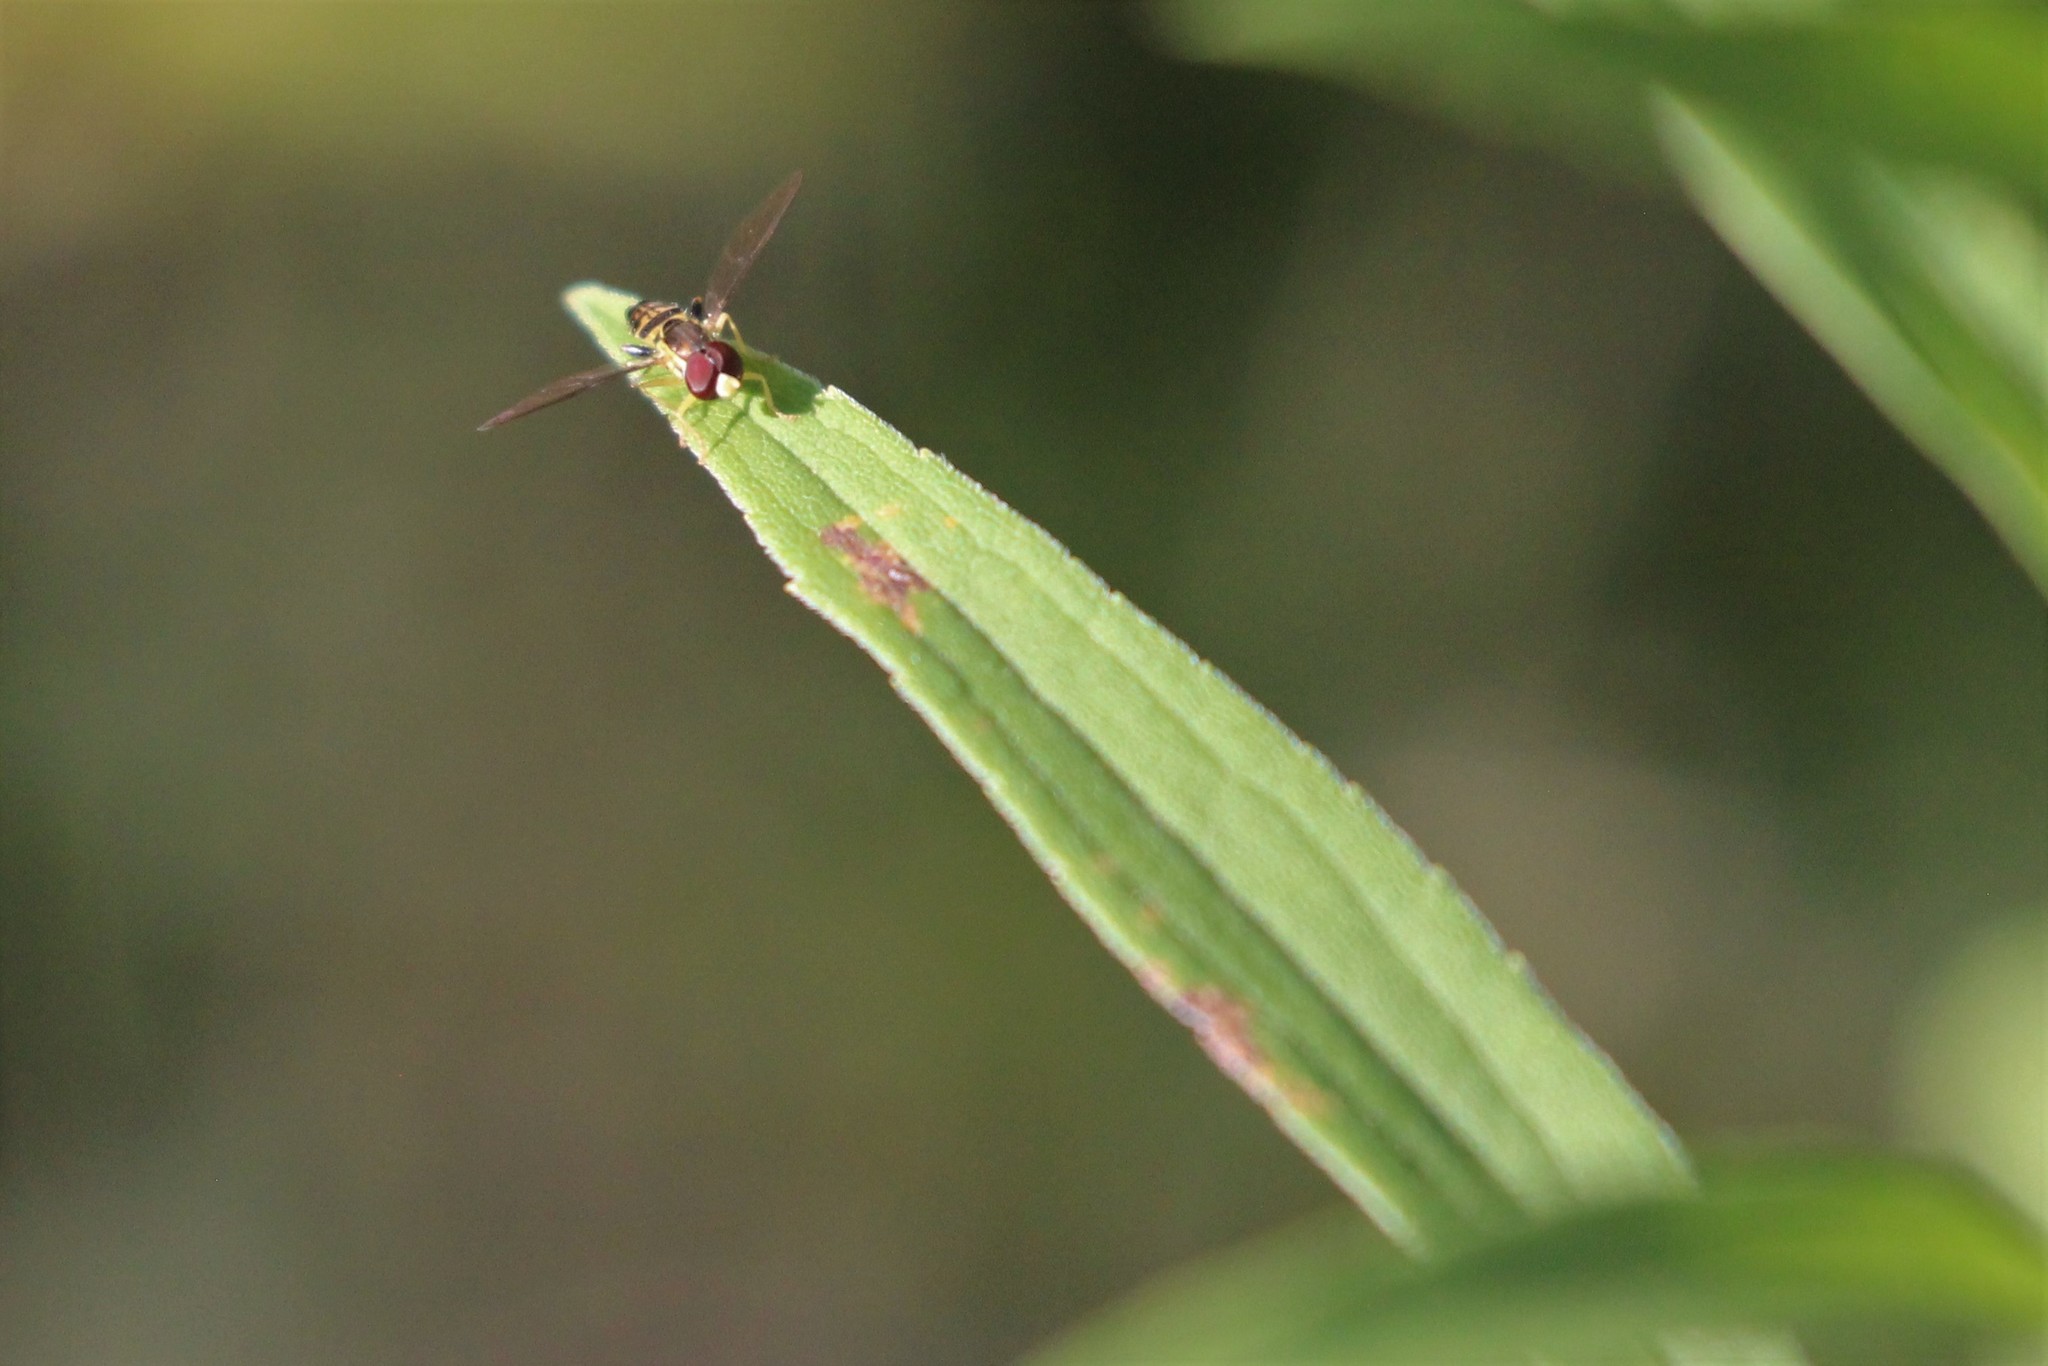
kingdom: Animalia
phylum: Arthropoda
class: Insecta
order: Diptera
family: Syrphidae
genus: Toxomerus
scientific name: Toxomerus geminatus
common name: Eastern calligrapher
